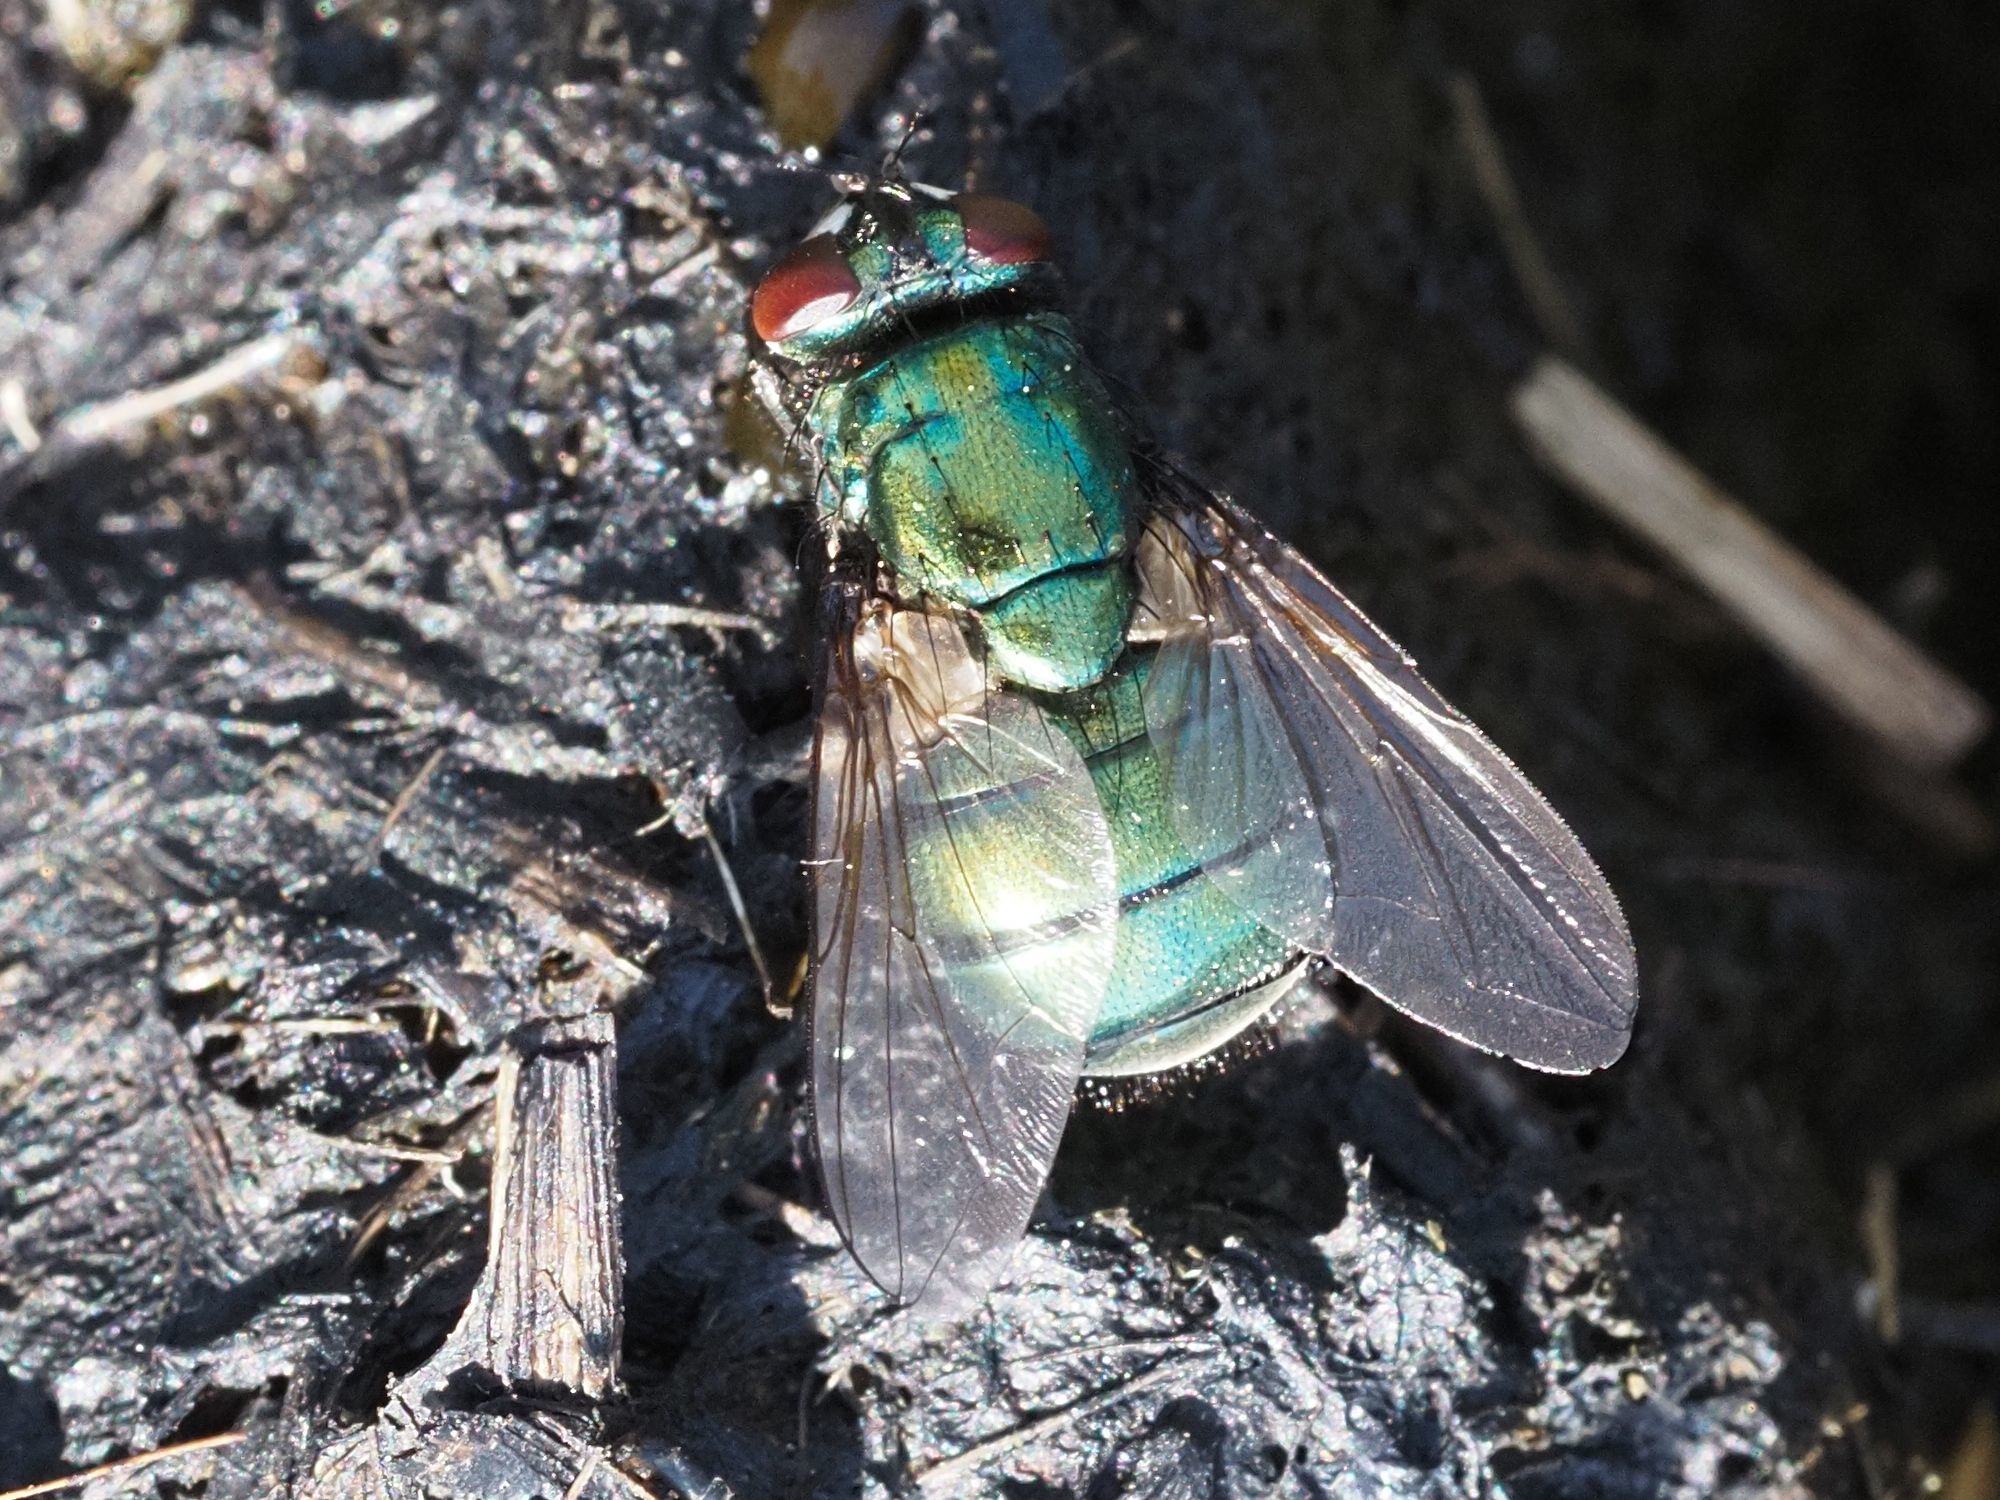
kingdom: Animalia
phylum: Arthropoda
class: Insecta
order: Diptera
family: Muscidae
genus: Neomyia
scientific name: Neomyia viridescens
